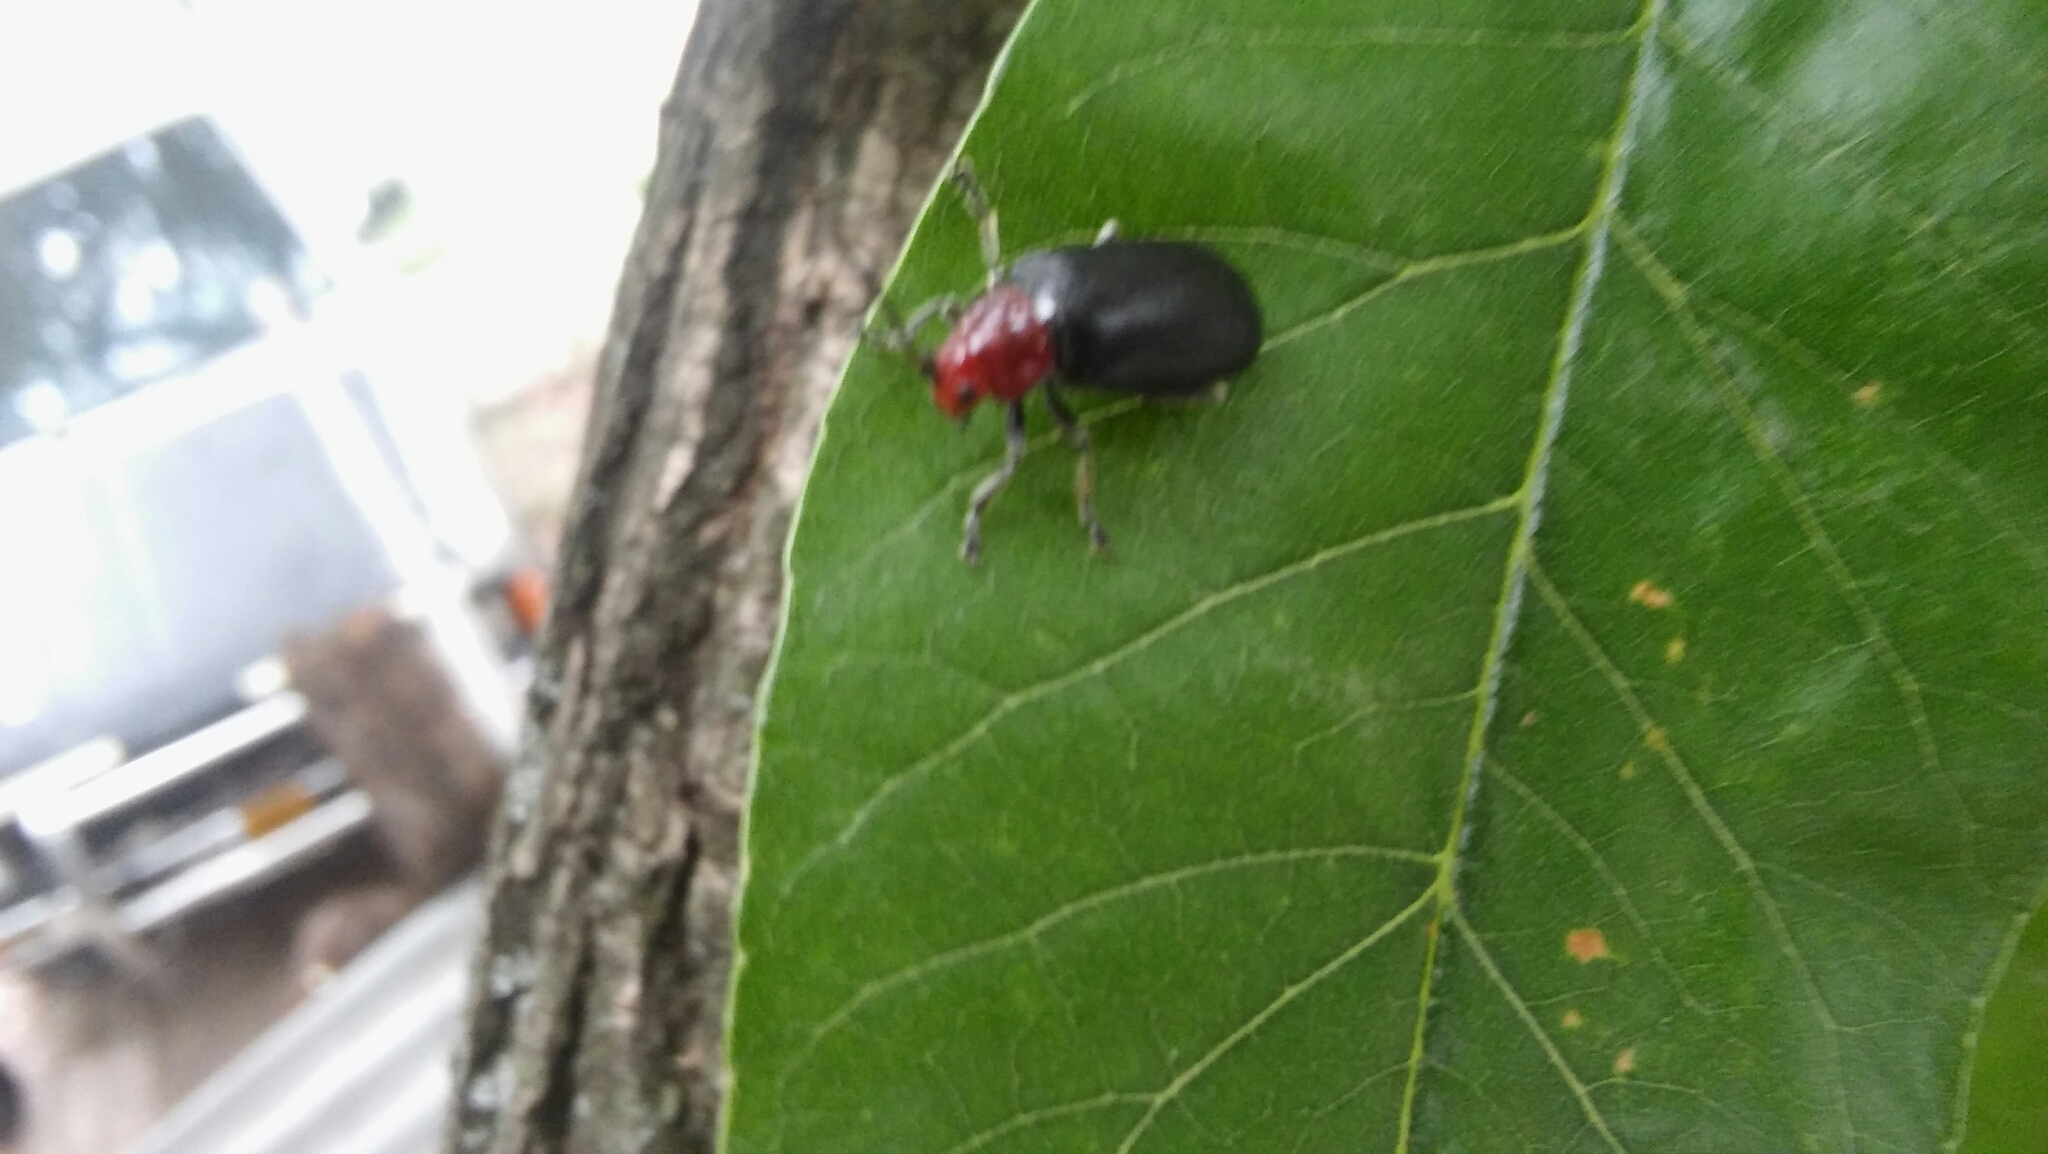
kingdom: Animalia
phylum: Arthropoda
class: Insecta
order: Coleoptera
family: Chrysomelidae
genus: Cacoscelis
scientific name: Cacoscelis
